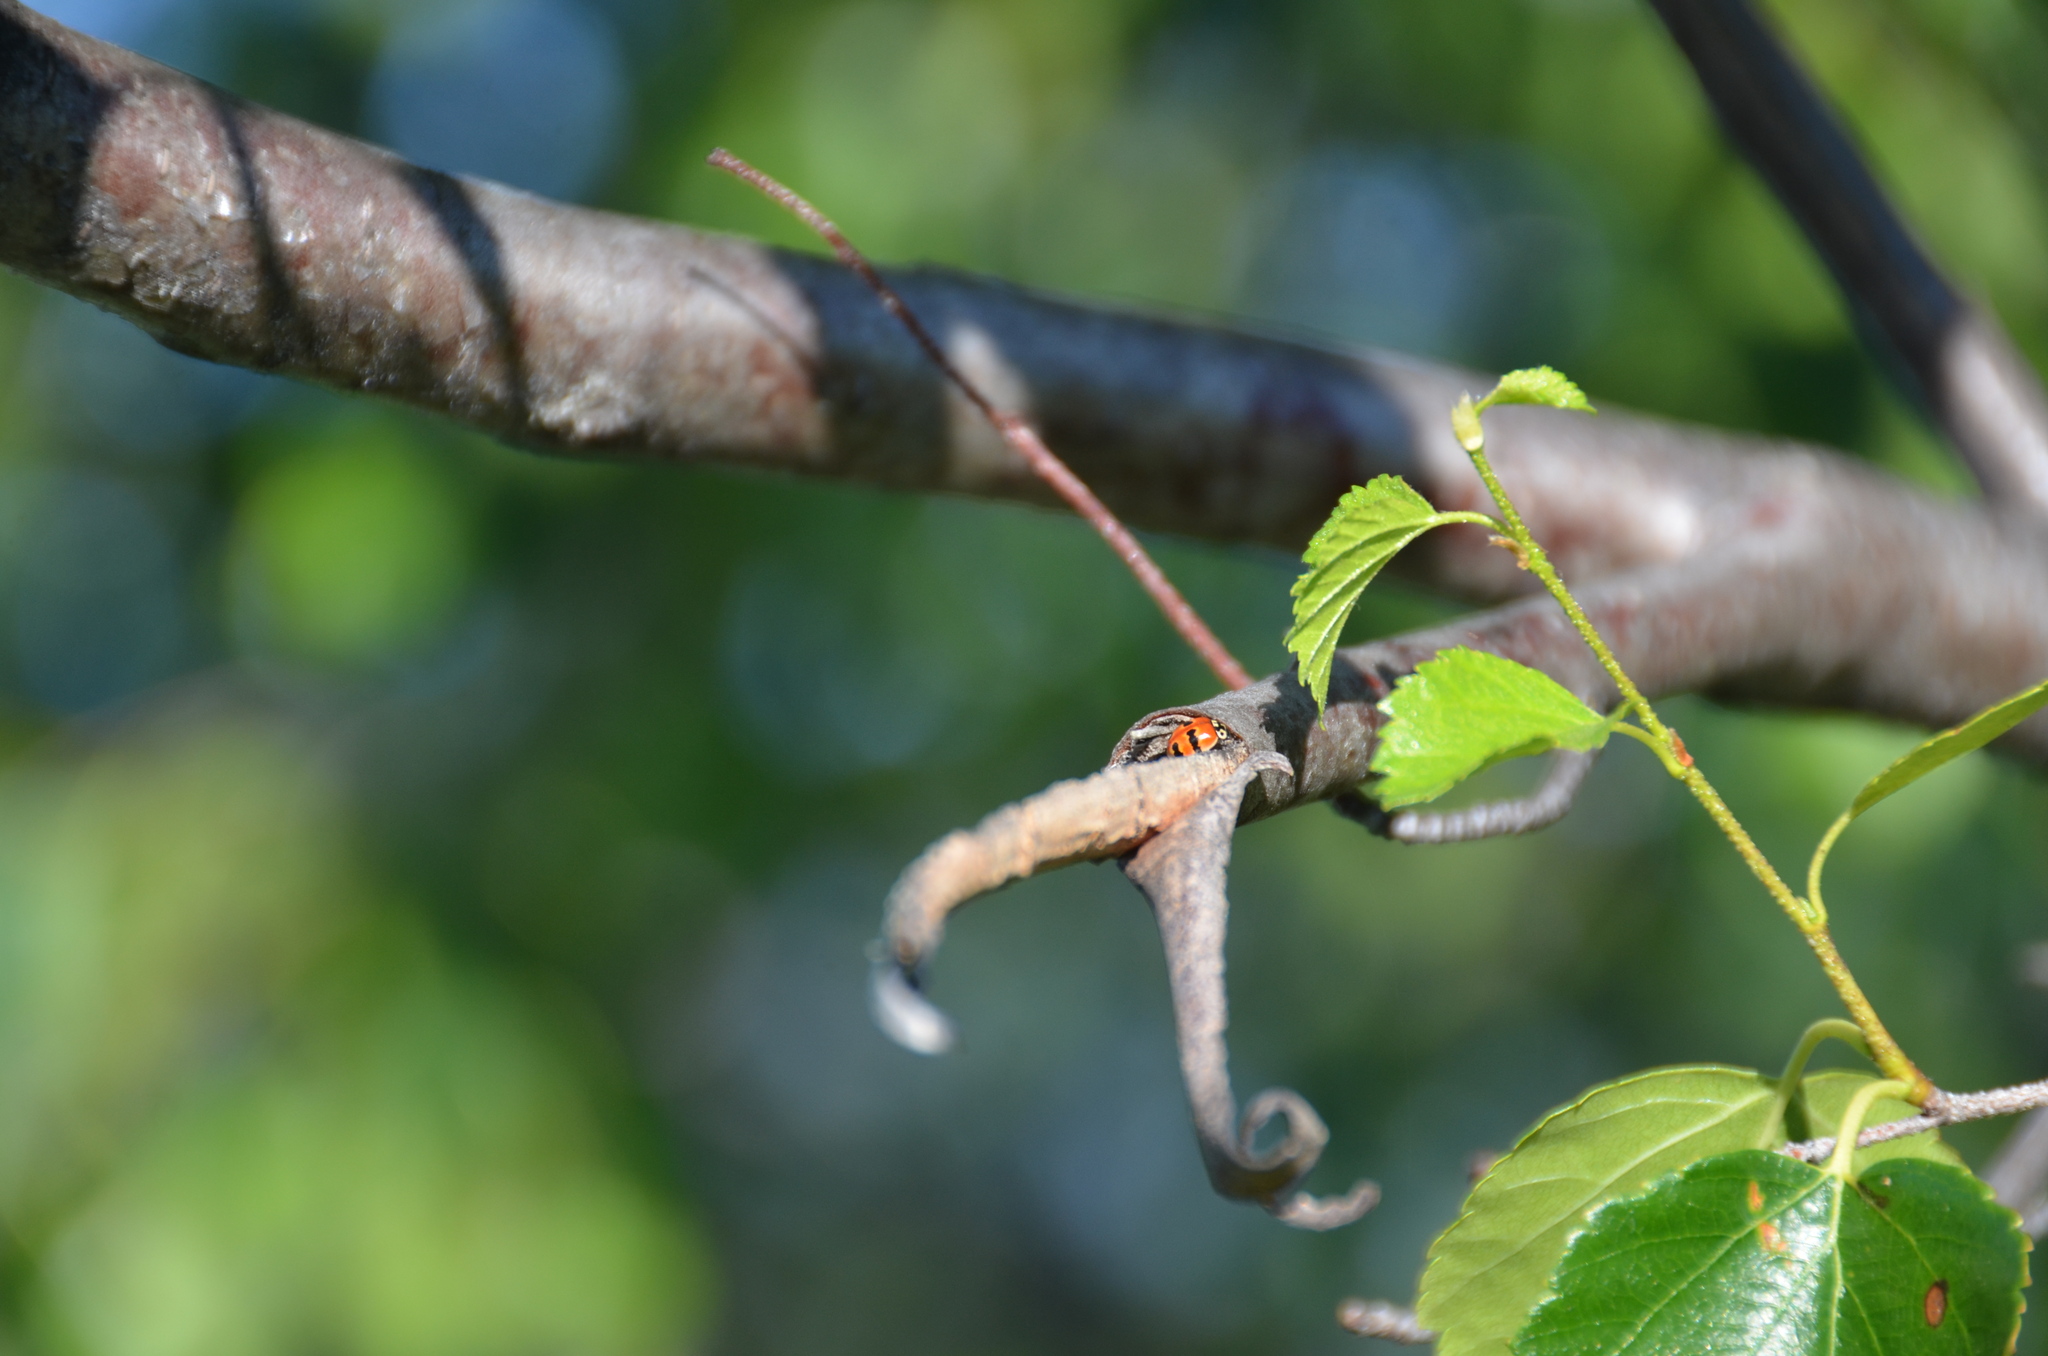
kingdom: Animalia
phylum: Arthropoda
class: Insecta
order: Coleoptera
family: Coccinellidae
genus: Adalia
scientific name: Adalia bipunctata
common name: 2-spot ladybird
